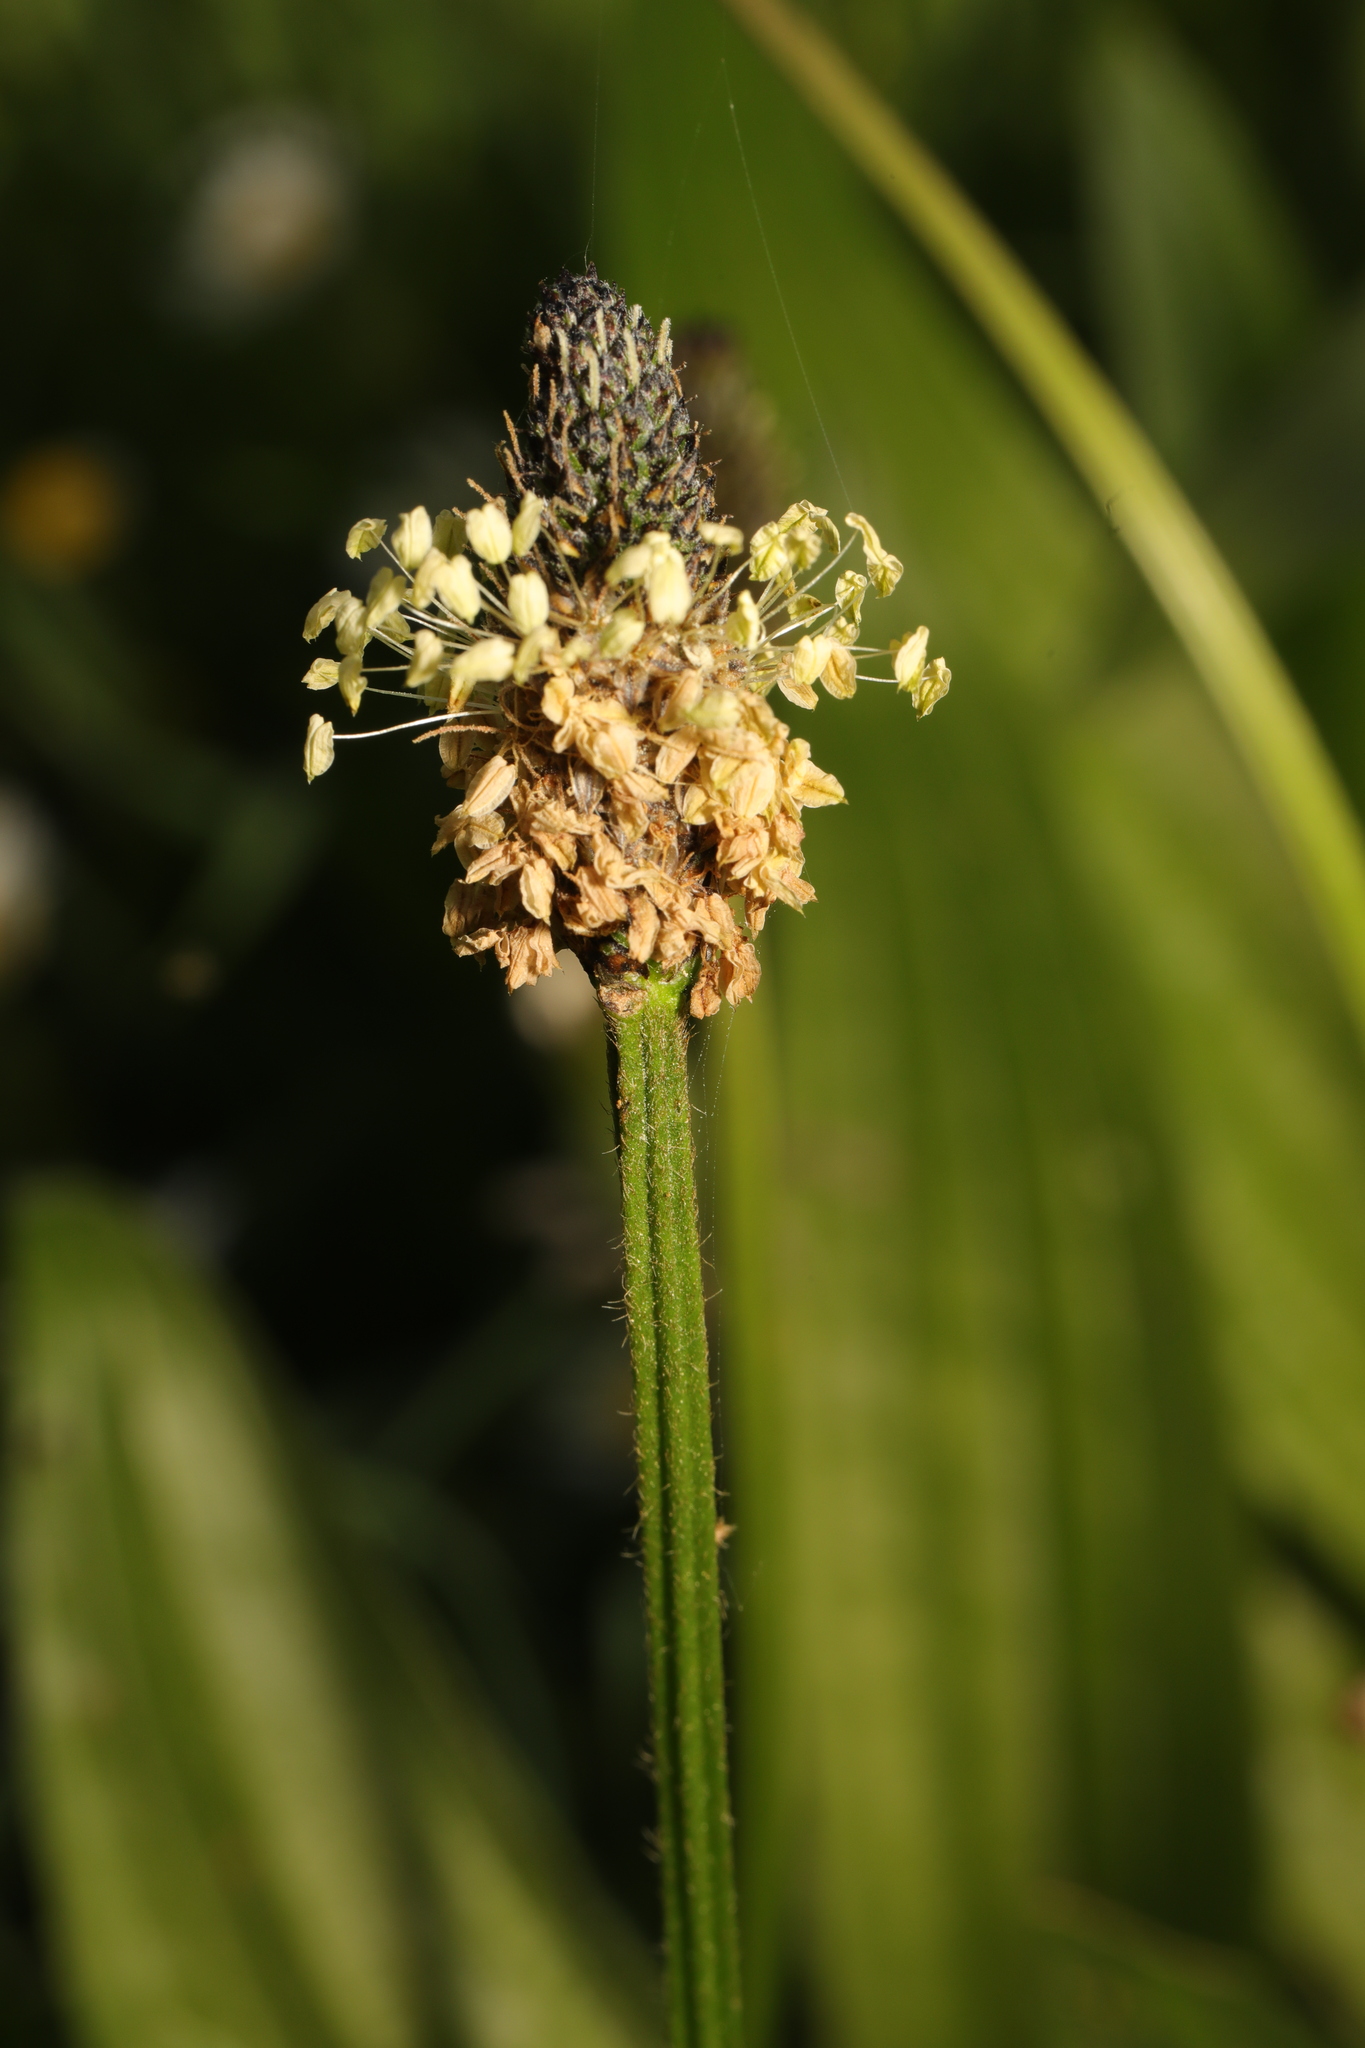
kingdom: Plantae
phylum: Tracheophyta
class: Magnoliopsida
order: Lamiales
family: Plantaginaceae
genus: Plantago
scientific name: Plantago lanceolata
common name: Ribwort plantain
